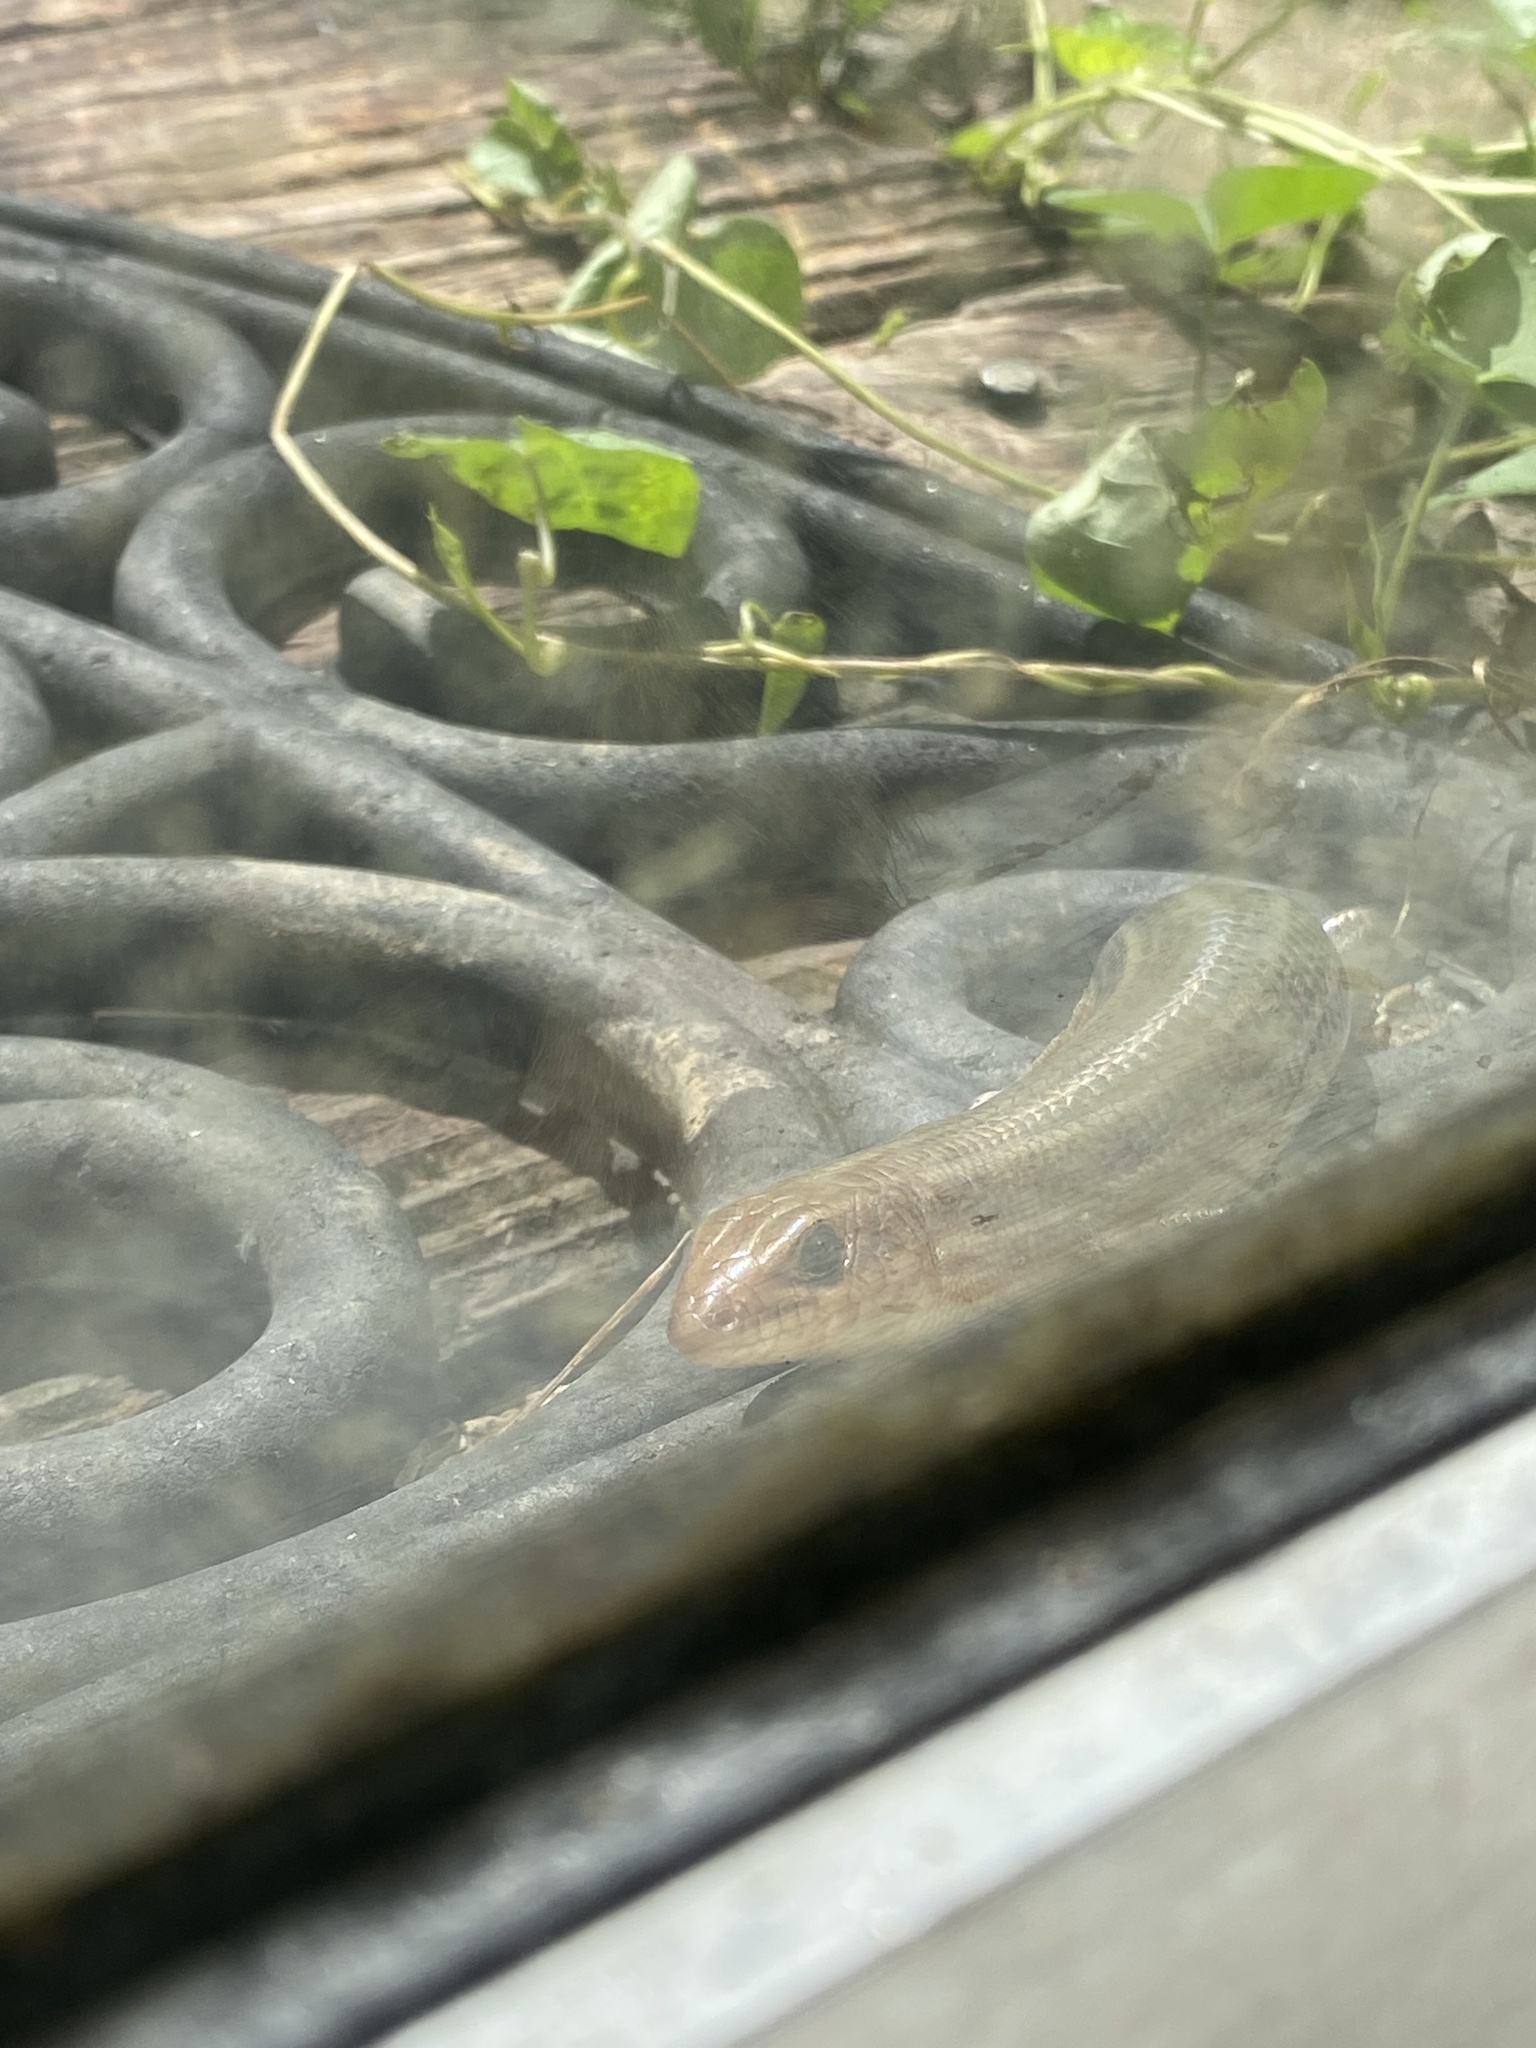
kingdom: Animalia
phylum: Chordata
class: Squamata
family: Scincidae
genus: Plestiodon
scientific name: Plestiodon laticeps
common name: Broadhead skink
